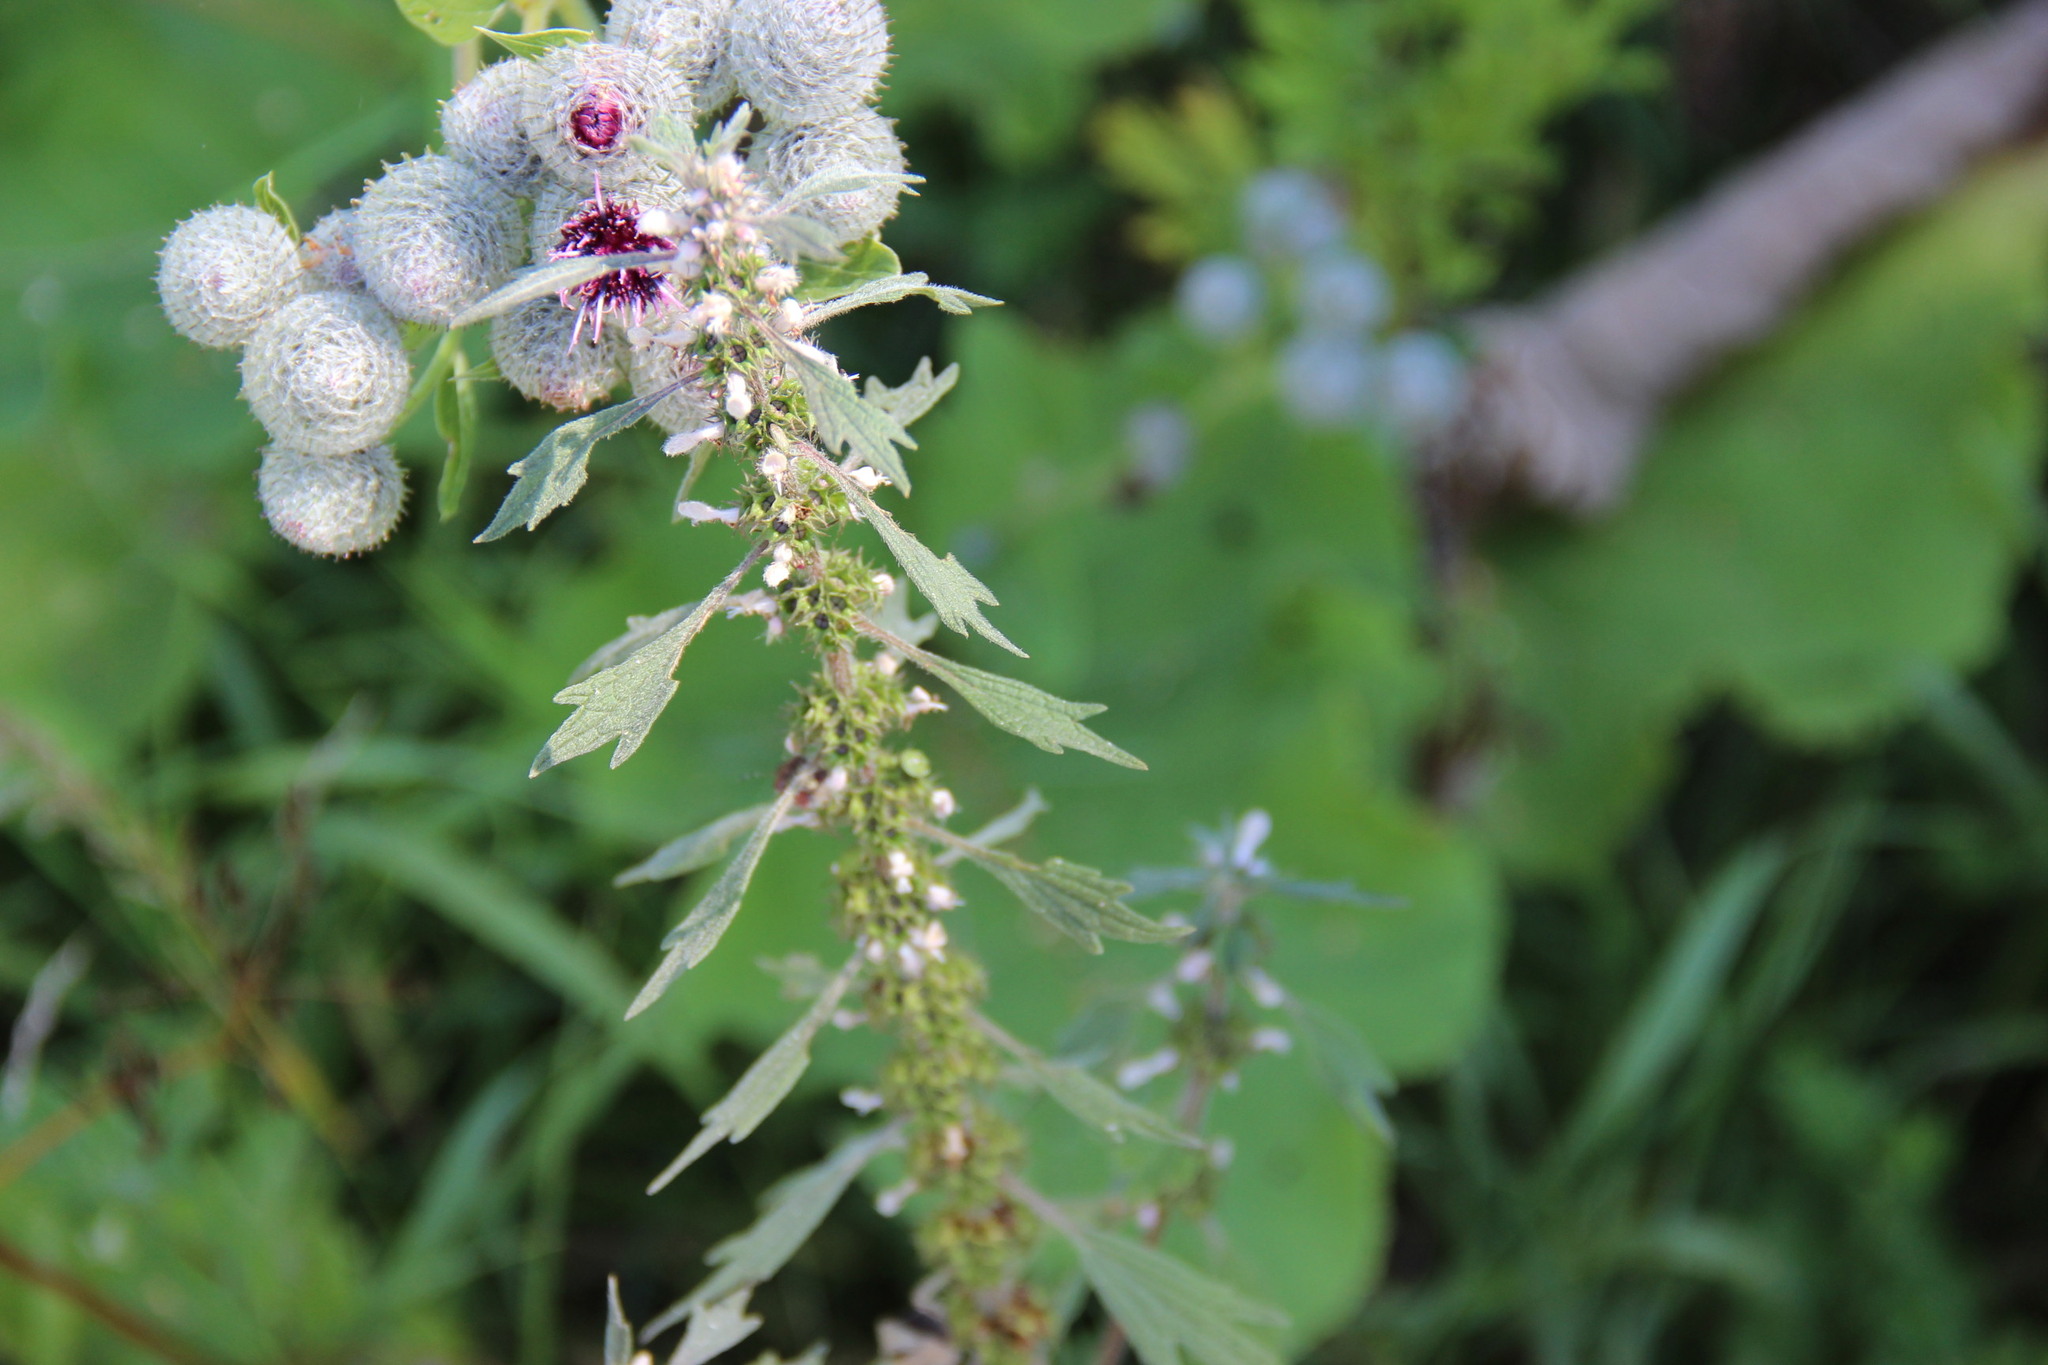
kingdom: Plantae
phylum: Tracheophyta
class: Magnoliopsida
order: Lamiales
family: Lamiaceae
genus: Leonurus
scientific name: Leonurus quinquelobatus
